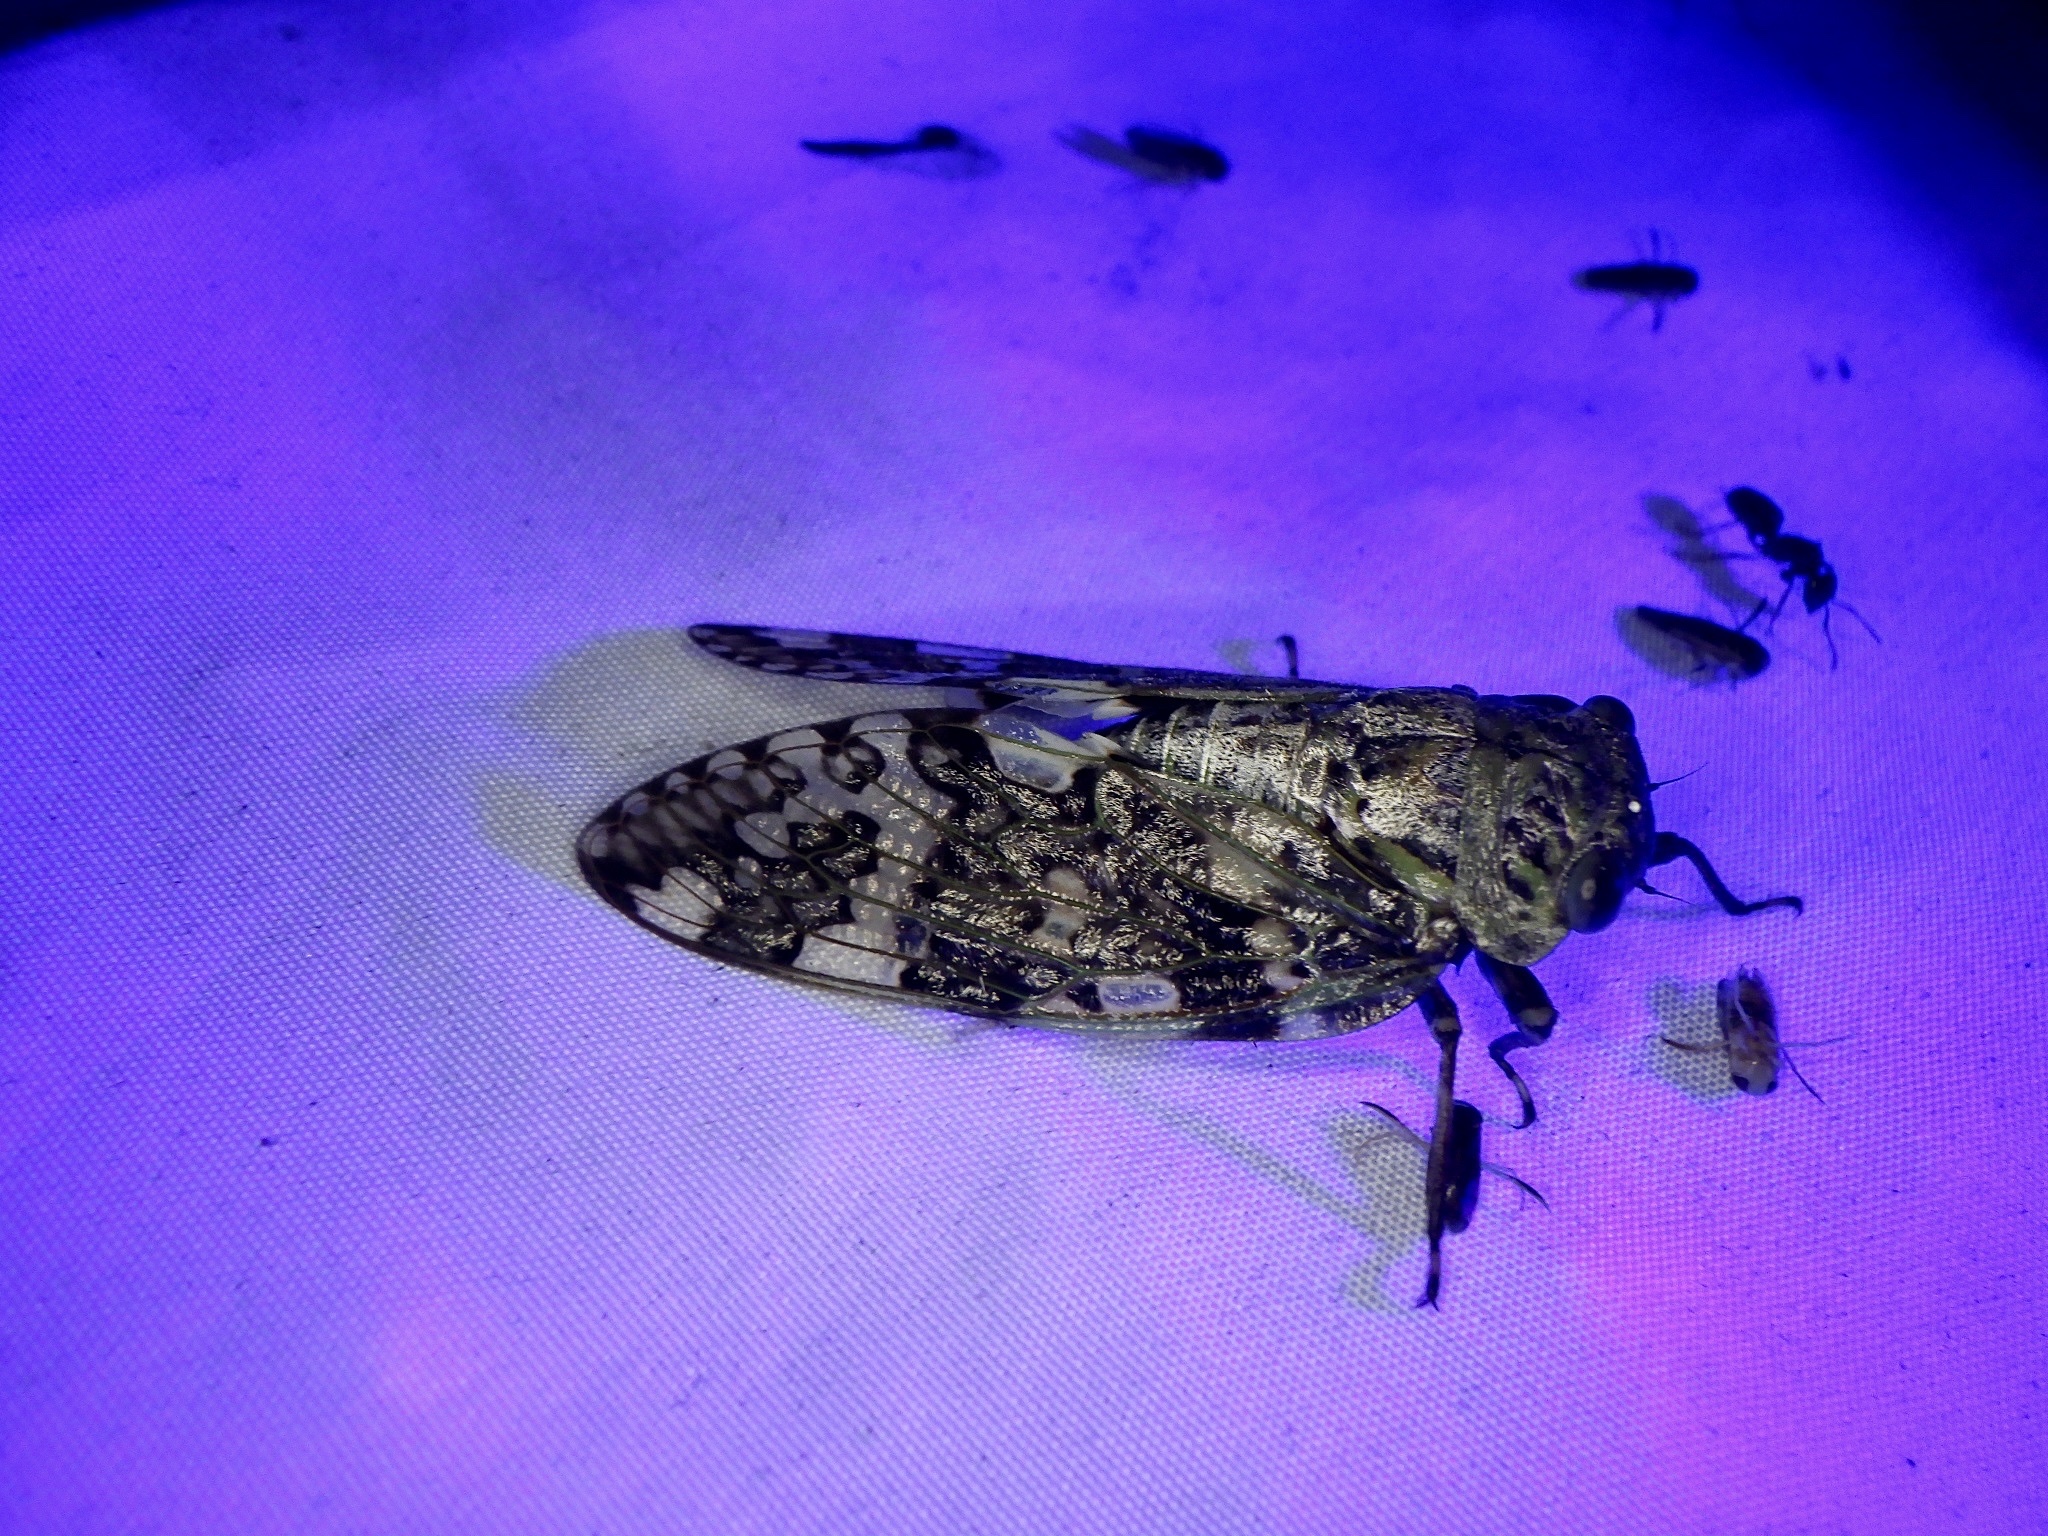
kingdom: Animalia
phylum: Arthropoda
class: Insecta
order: Hemiptera
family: Cicadidae
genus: Platypleura
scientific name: Platypleura kaempferi
